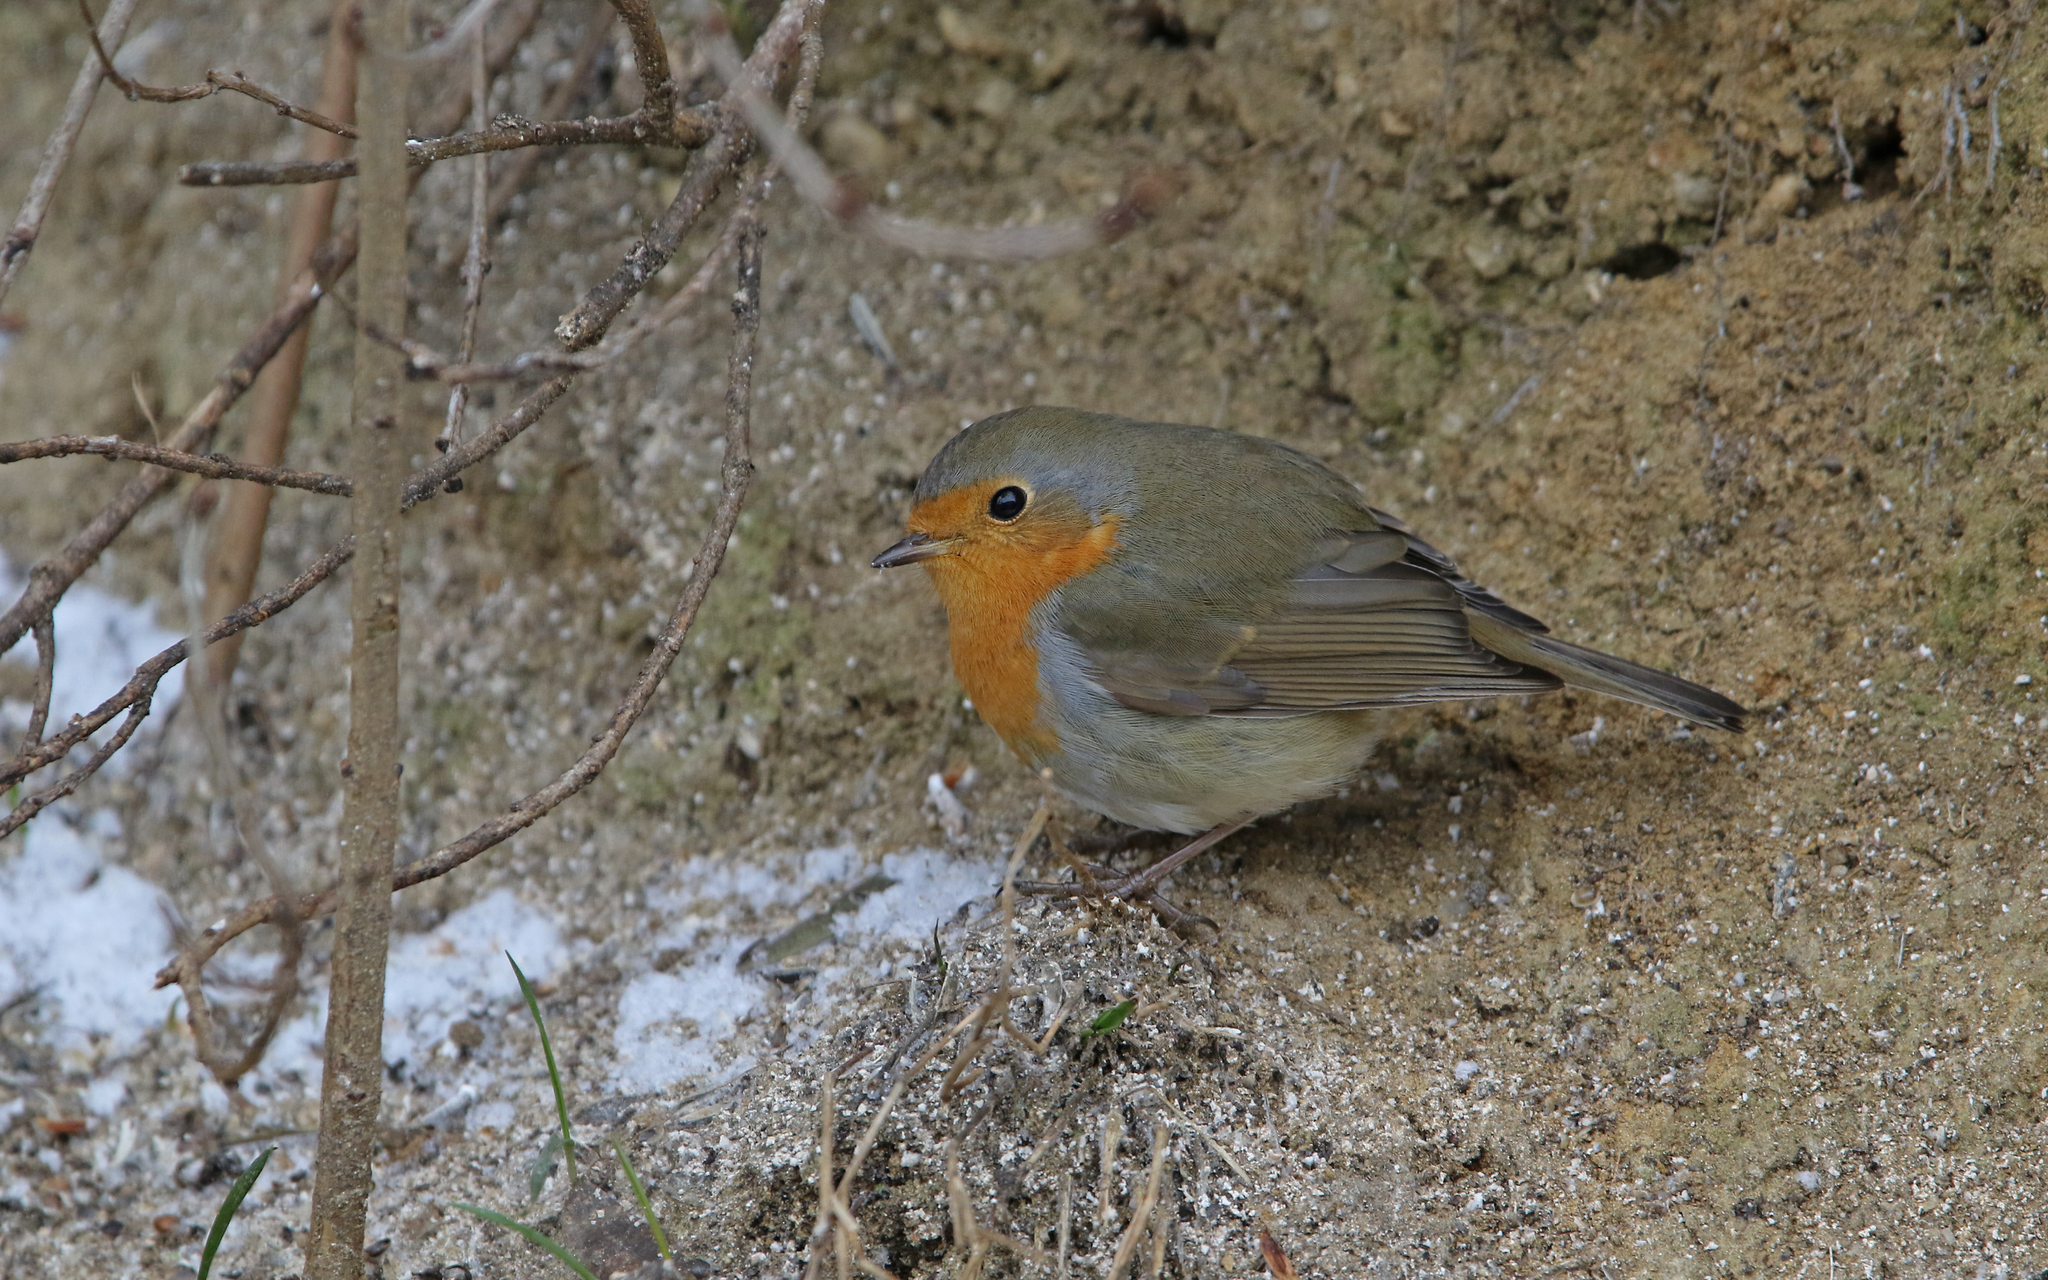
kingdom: Animalia
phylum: Chordata
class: Aves
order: Passeriformes
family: Muscicapidae
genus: Erithacus
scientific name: Erithacus rubecula
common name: European robin
